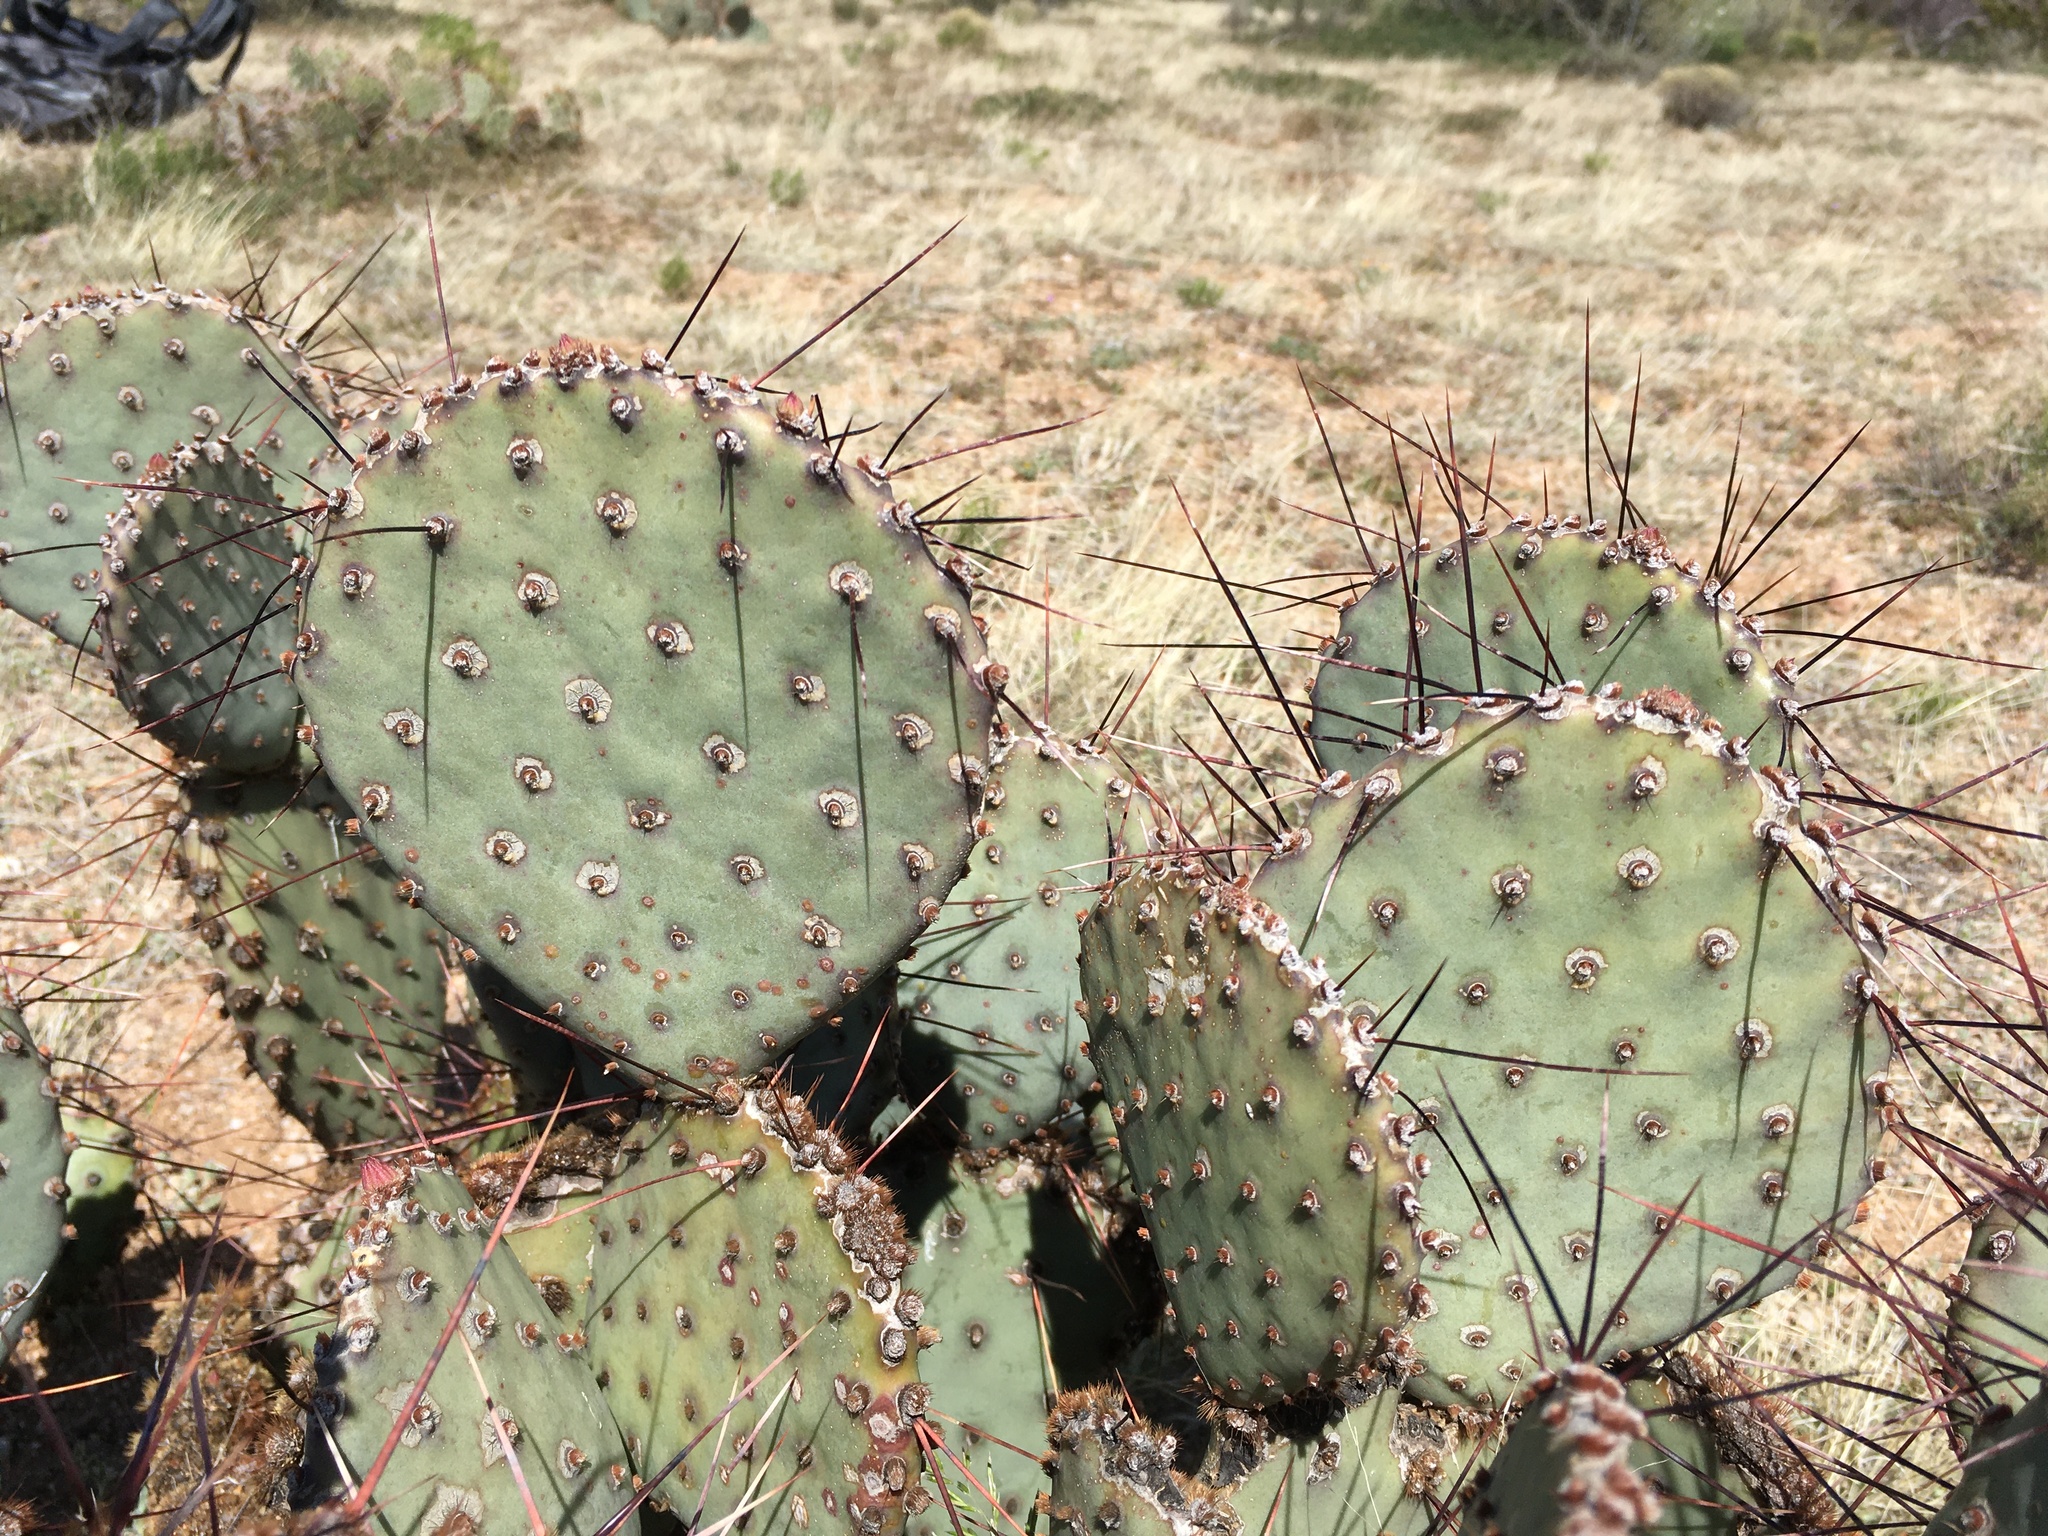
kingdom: Plantae
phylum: Tracheophyta
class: Magnoliopsida
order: Caryophyllales
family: Cactaceae
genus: Opuntia
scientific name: Opuntia macrocentra
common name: Purple prickly-pear
